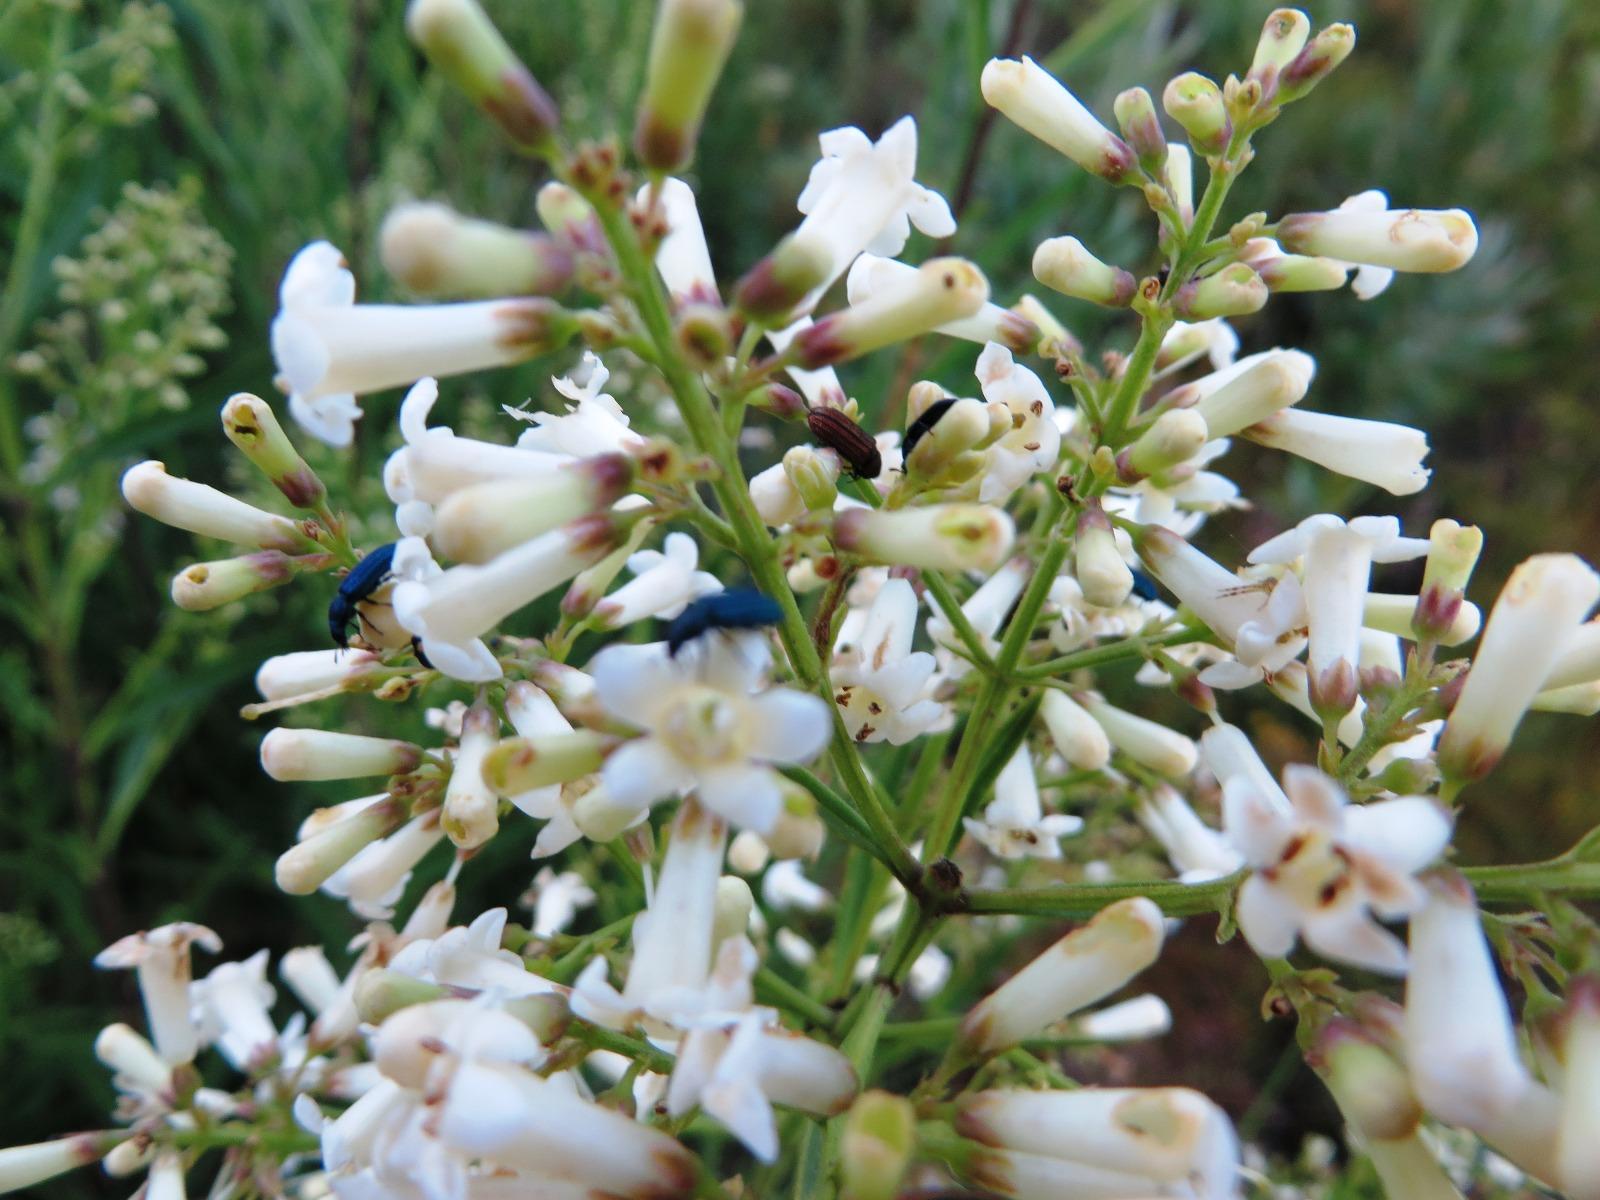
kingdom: Plantae
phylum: Tracheophyta
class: Magnoliopsida
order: Lamiales
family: Scrophulariaceae
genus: Freylinia
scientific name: Freylinia lanceolata
